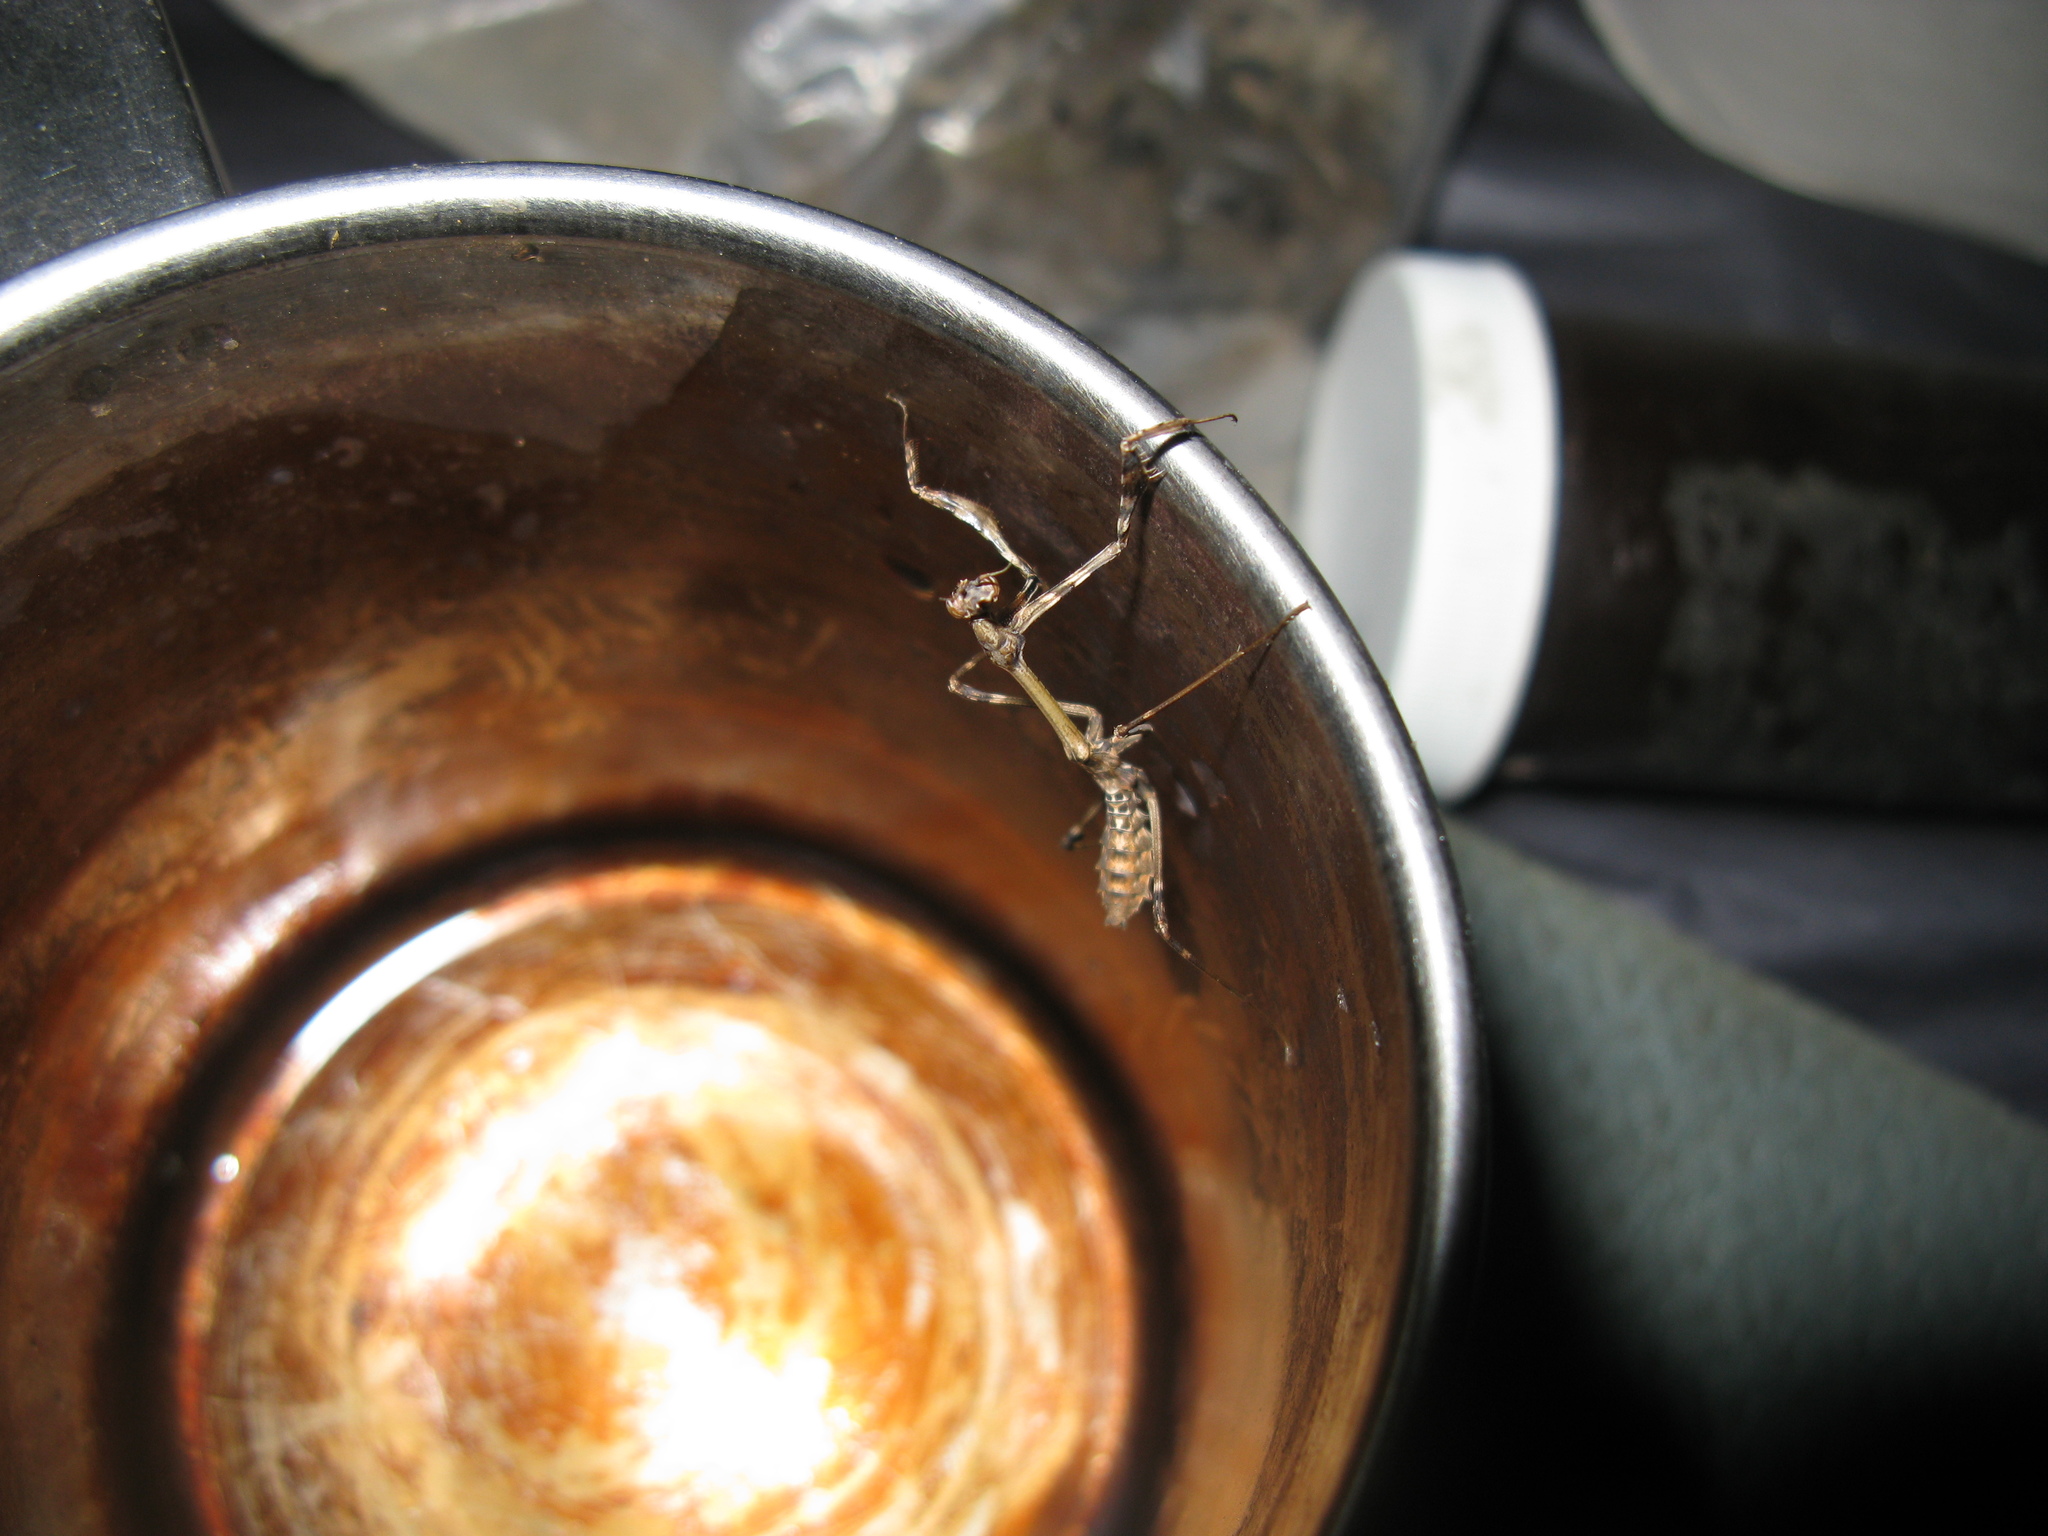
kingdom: Animalia
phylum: Arthropoda
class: Insecta
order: Mantodea
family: Empusidae
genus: Empusa
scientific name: Empusa fasciata
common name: Devil's mare
